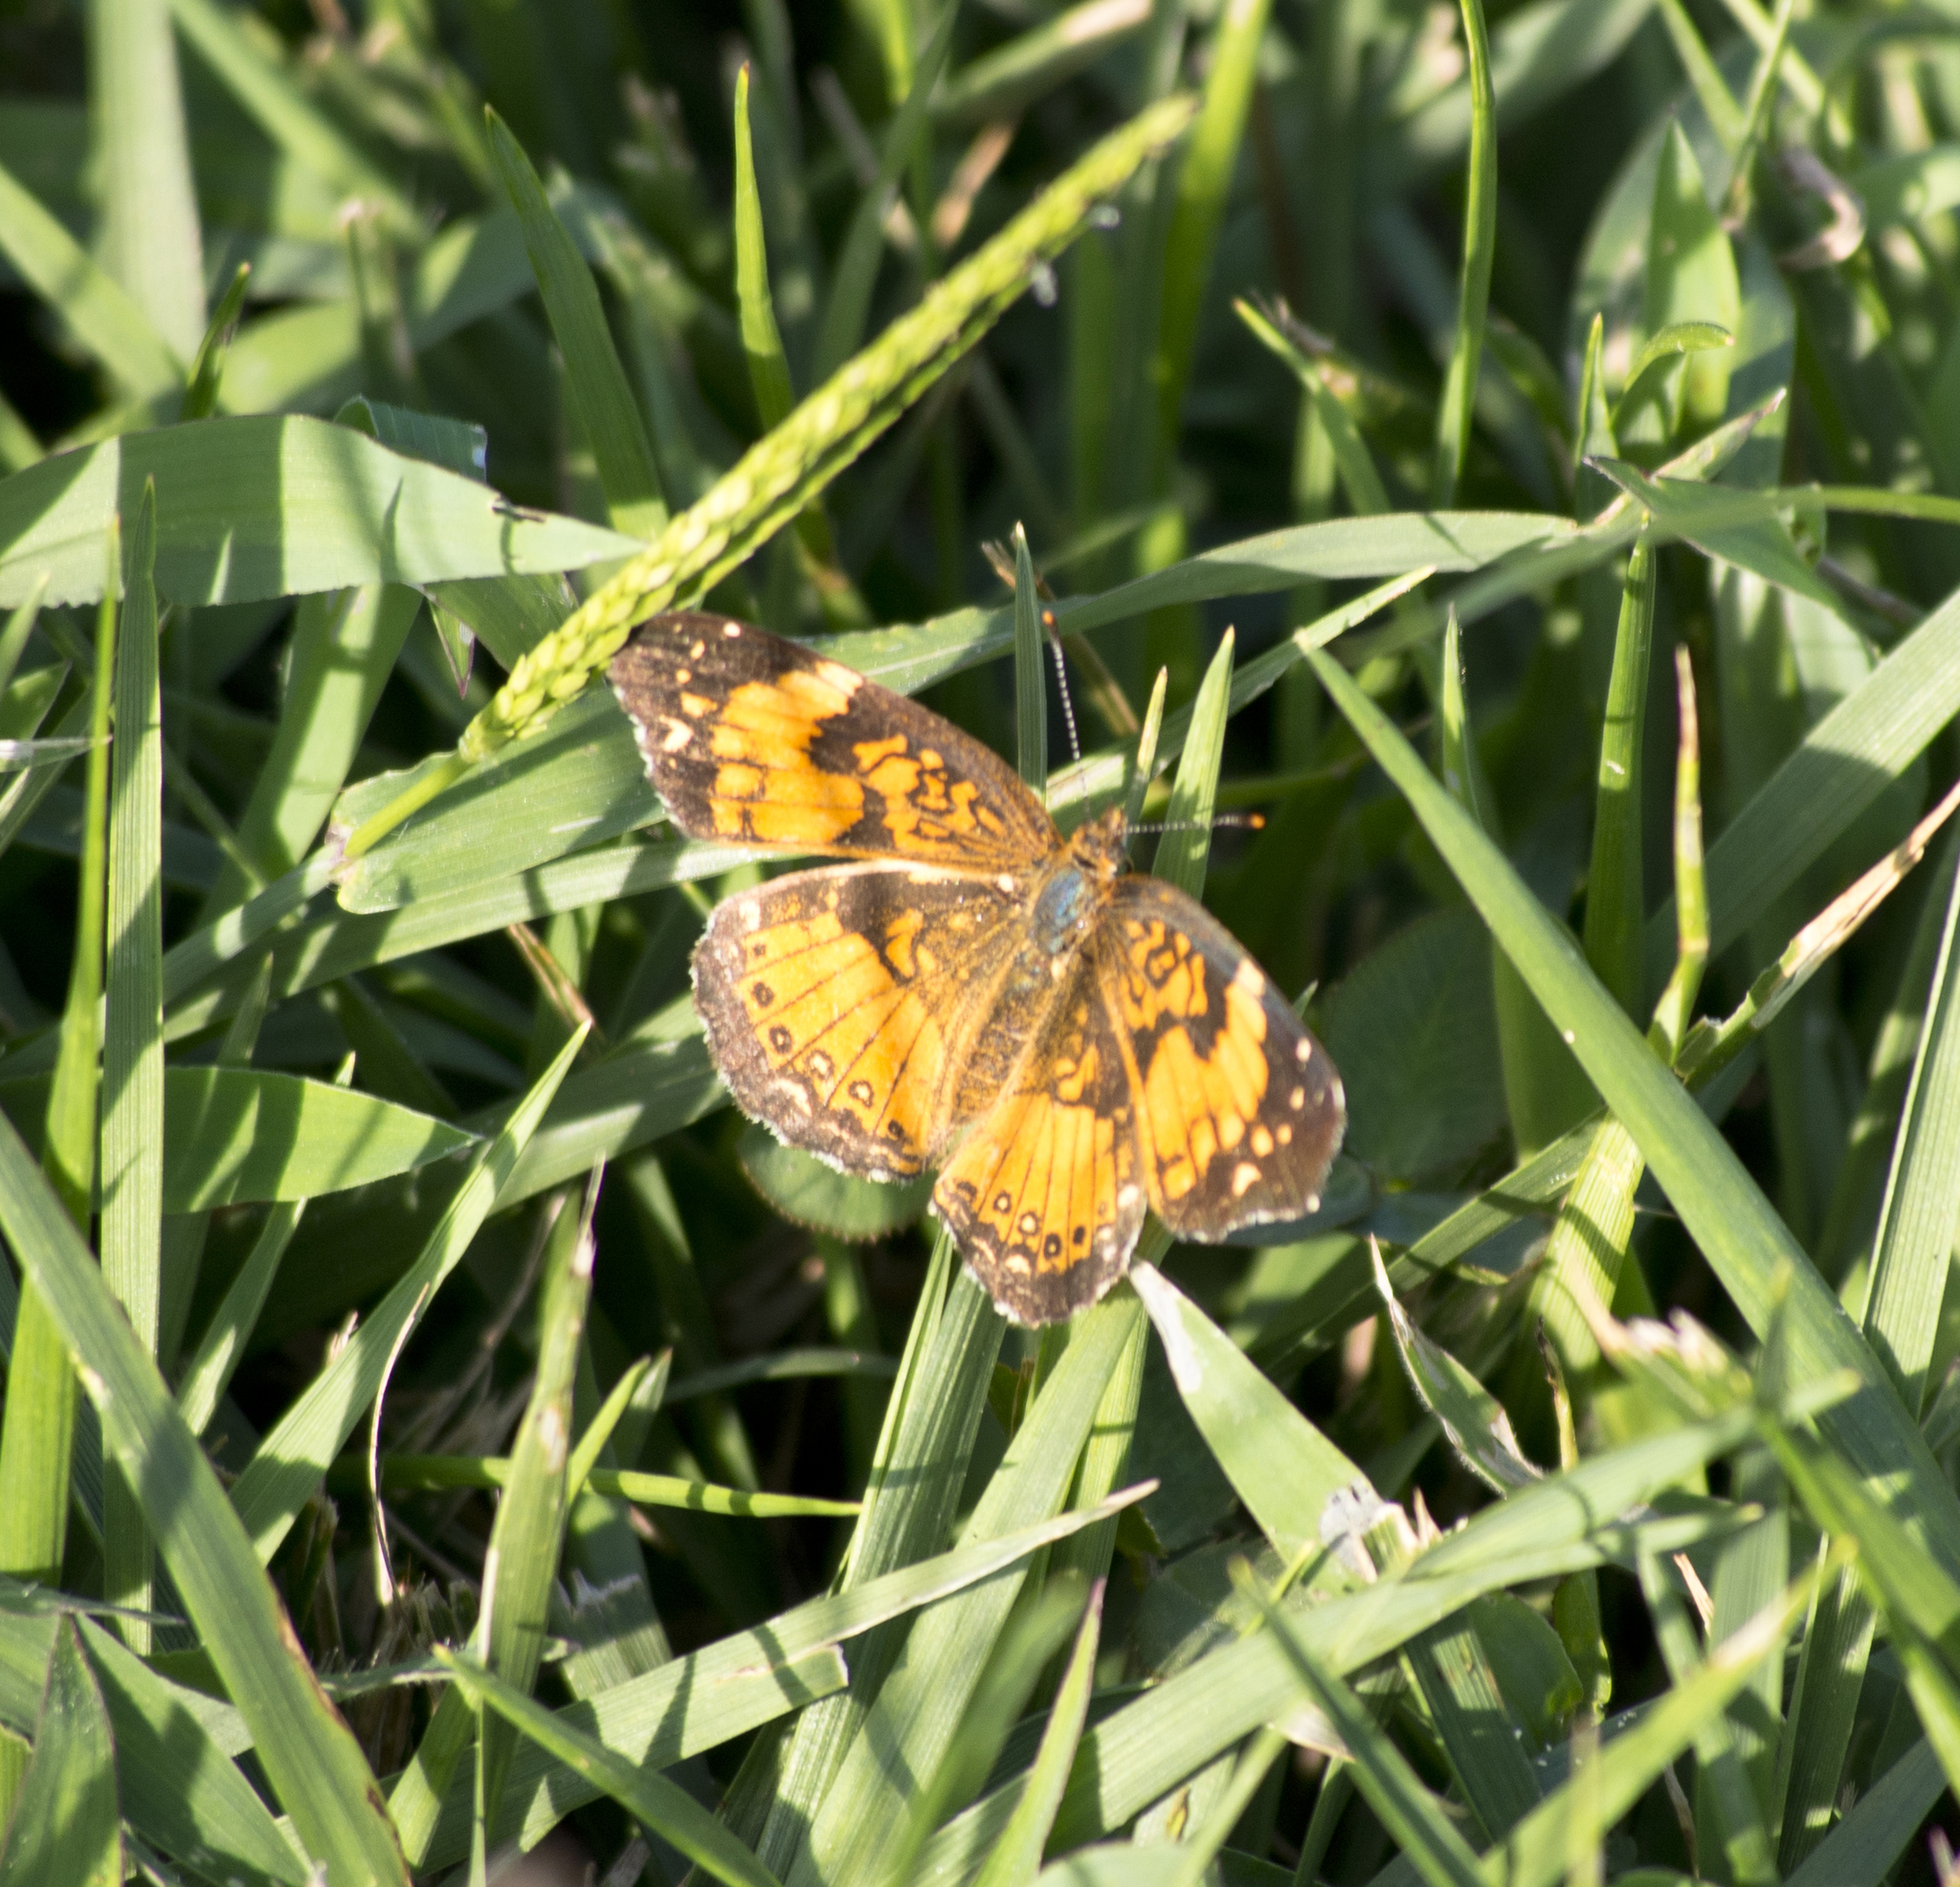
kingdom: Animalia
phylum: Arthropoda
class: Insecta
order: Lepidoptera
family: Nymphalidae
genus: Chlosyne
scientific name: Chlosyne nycteis
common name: Silvery checkerspot
